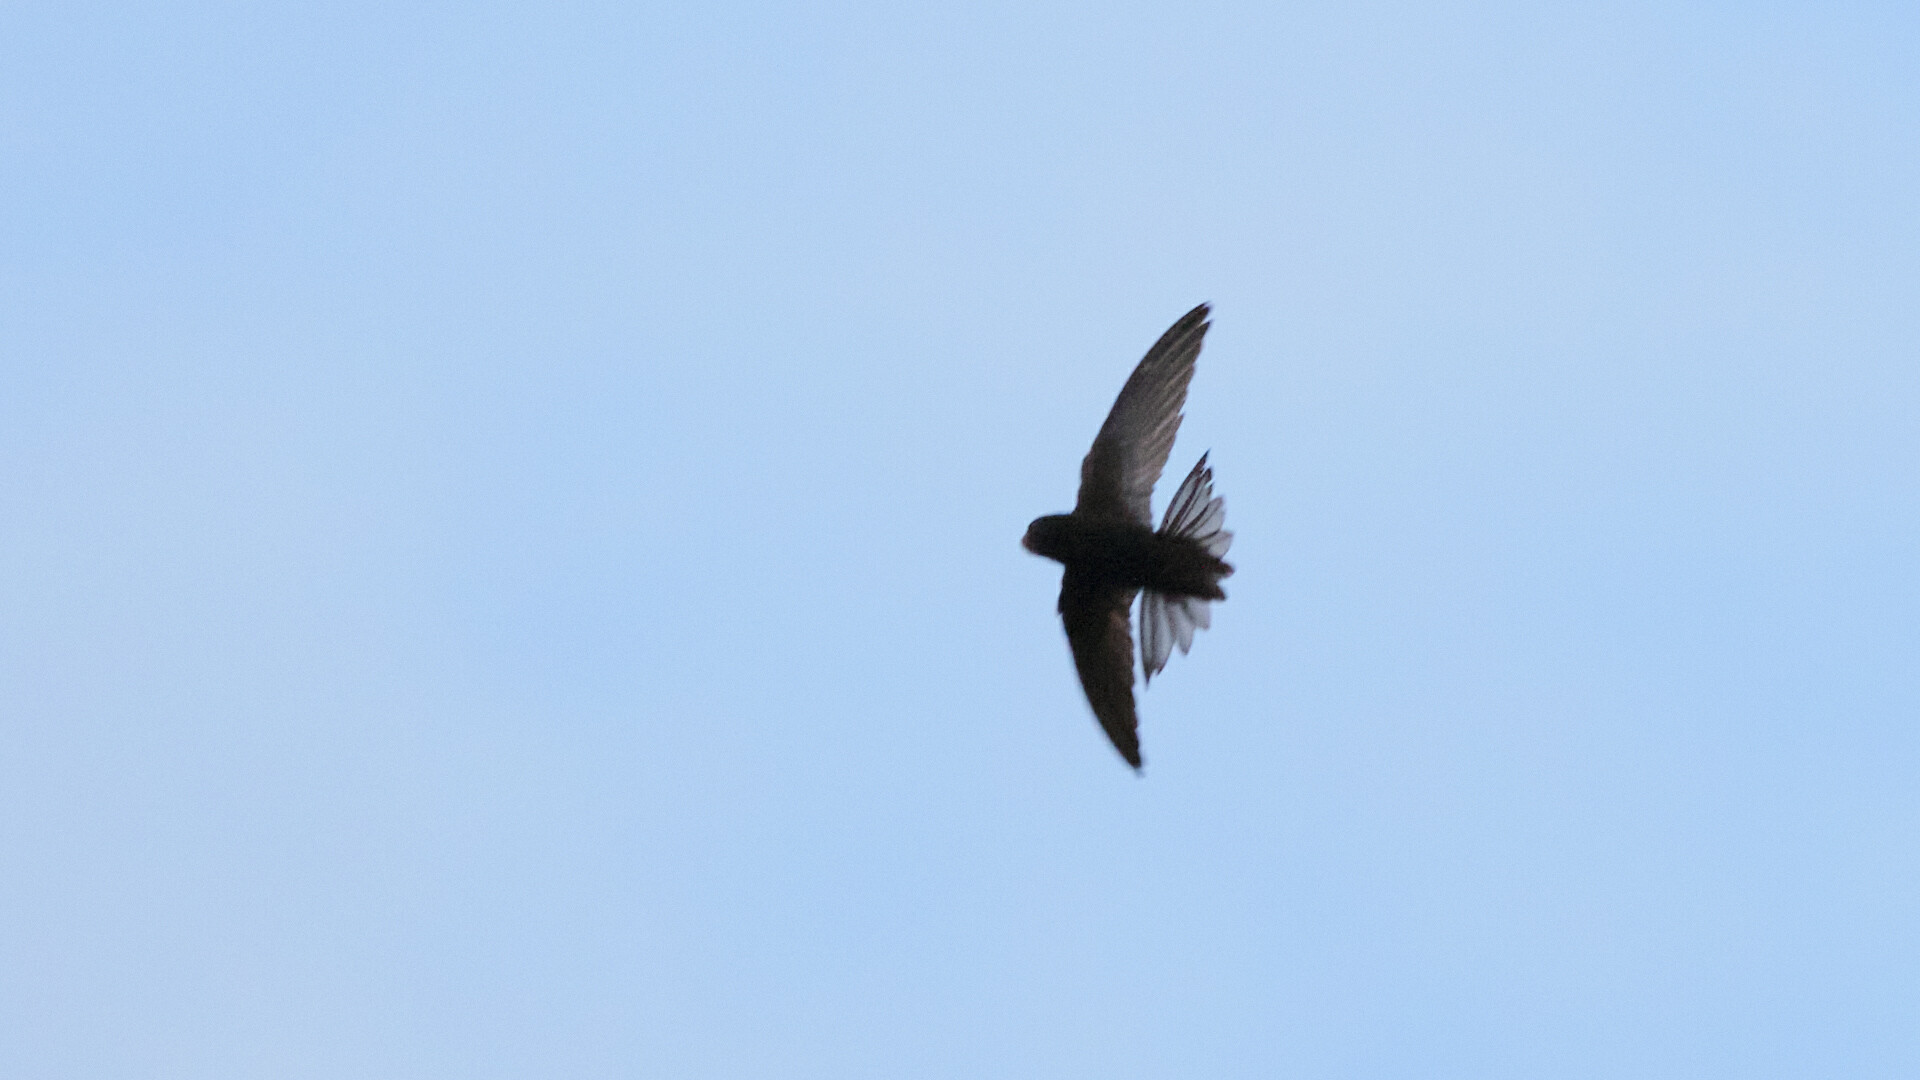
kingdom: Animalia
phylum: Chordata
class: Aves
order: Apodiformes
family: Apodidae
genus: Apus
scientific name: Apus apus
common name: Common swift
